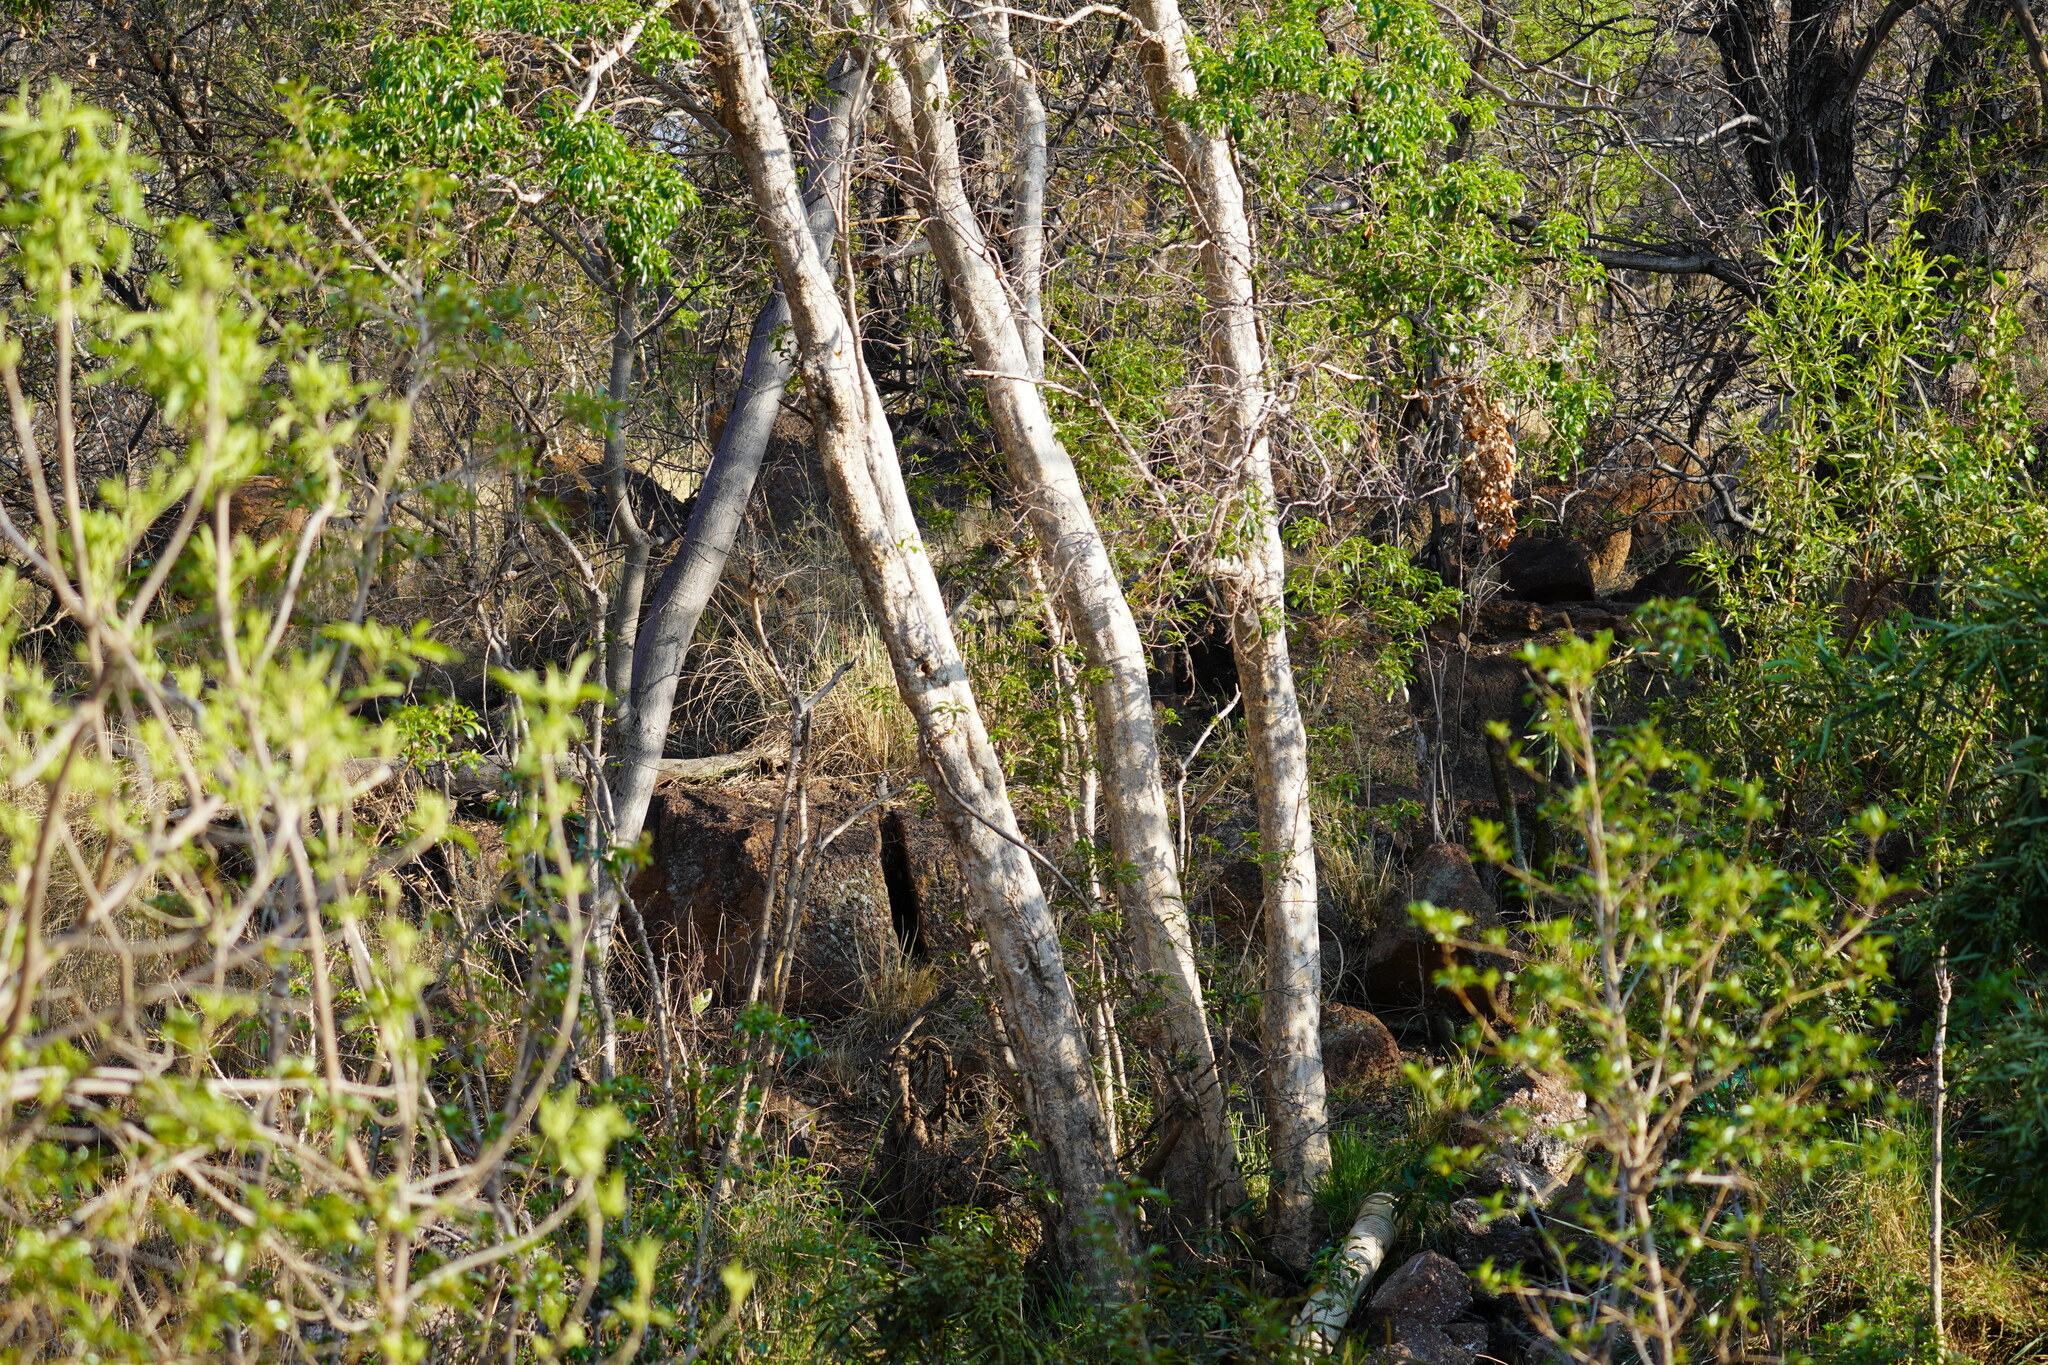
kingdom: Plantae
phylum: Tracheophyta
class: Magnoliopsida
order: Myrtales
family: Myrtaceae
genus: Heteropyxis
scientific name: Heteropyxis natalensis
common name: Lavender tree
